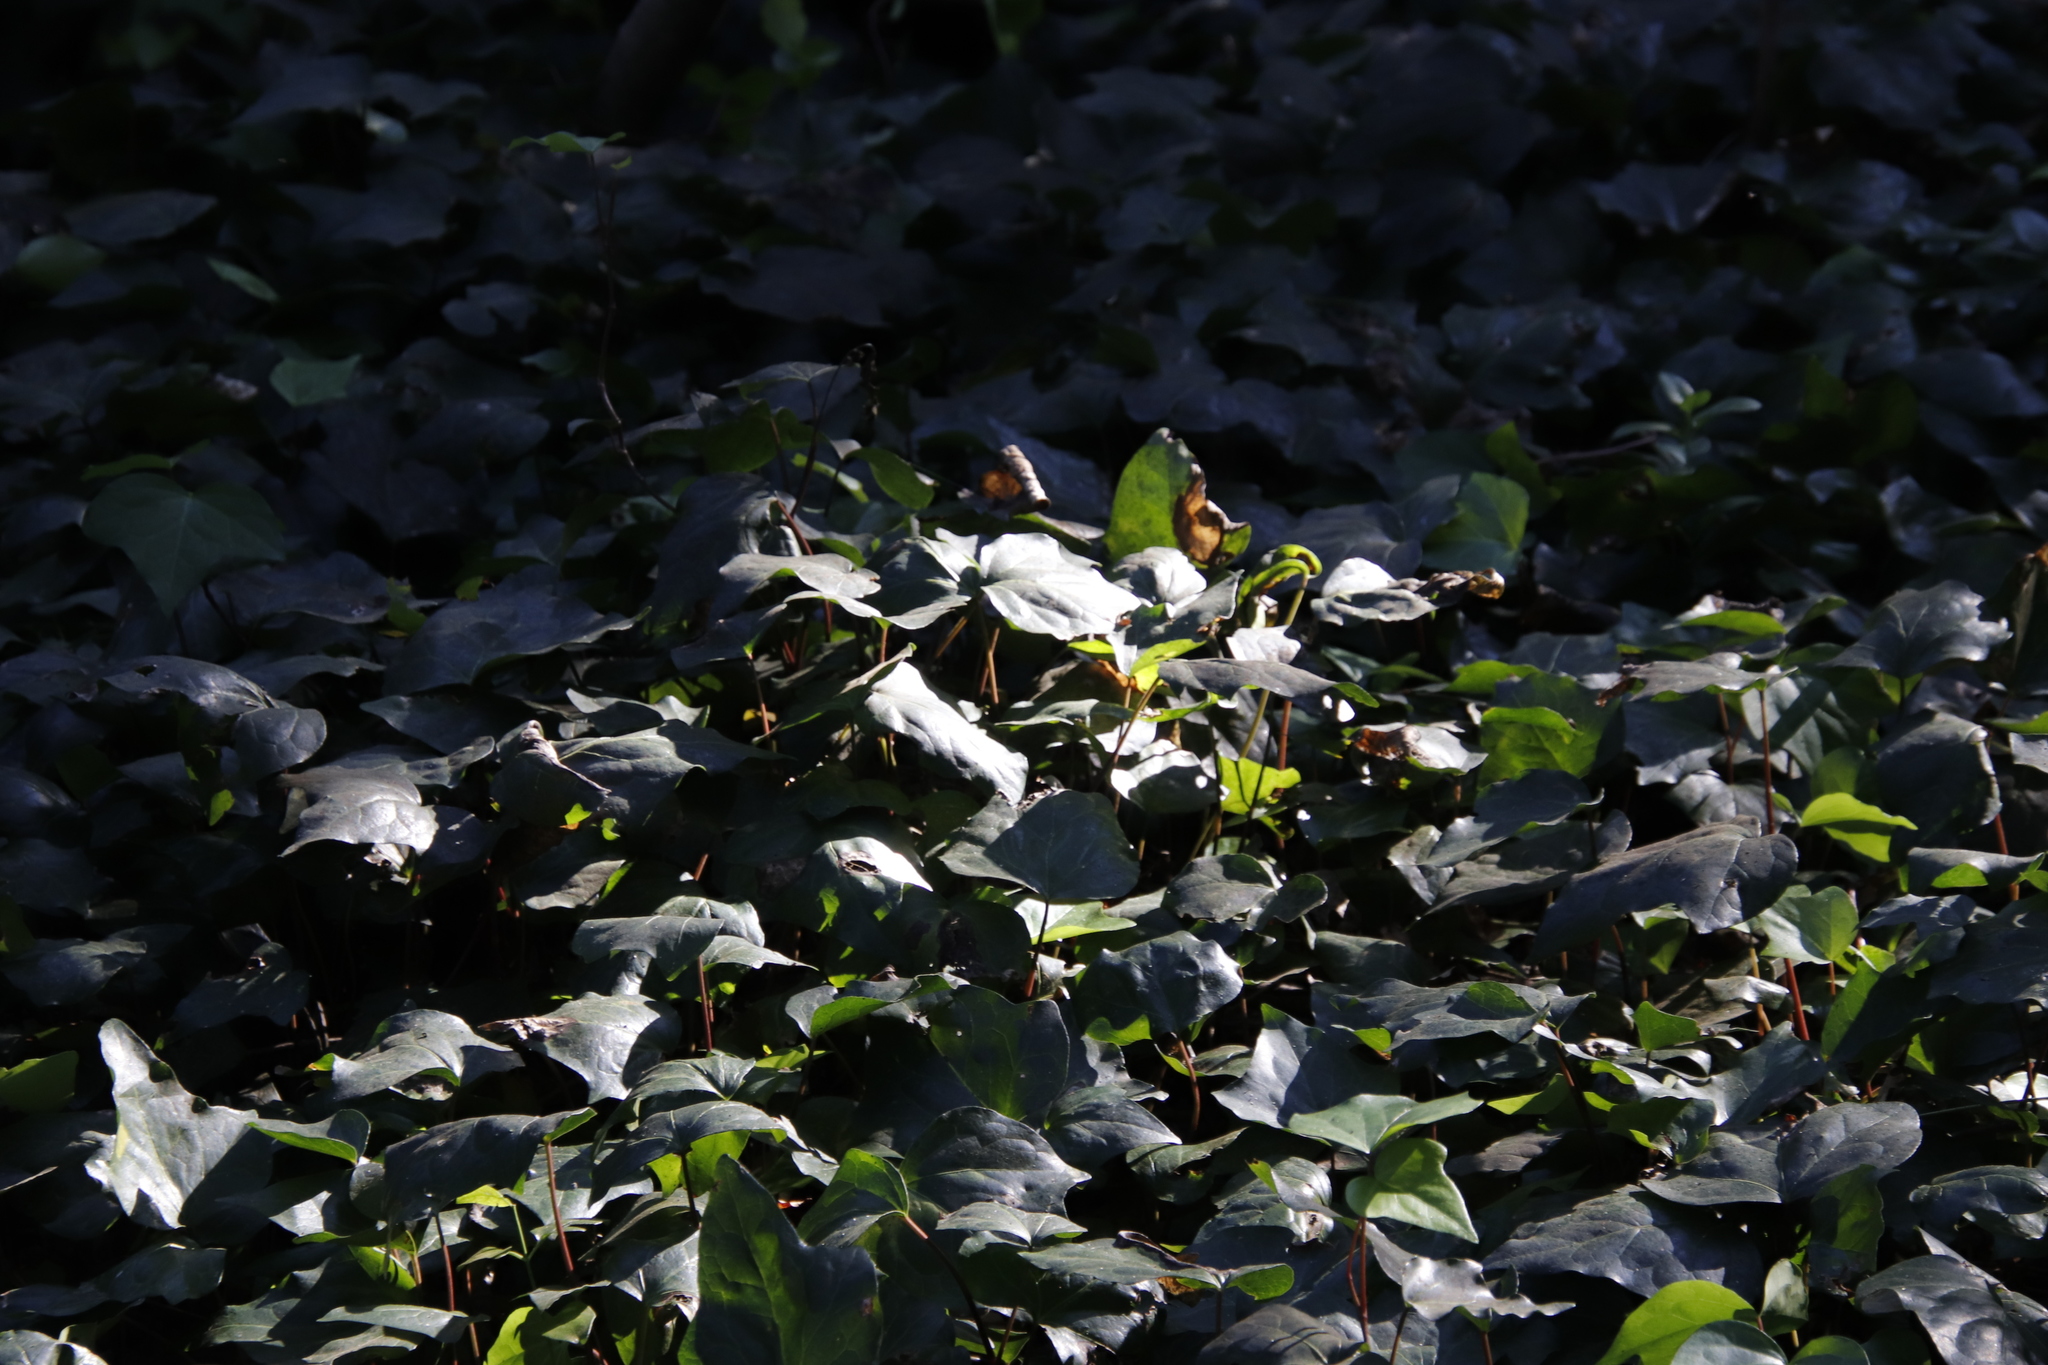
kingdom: Plantae
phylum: Tracheophyta
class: Magnoliopsida
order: Apiales
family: Araliaceae
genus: Hedera
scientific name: Hedera canariensis
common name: Madeira ivy
